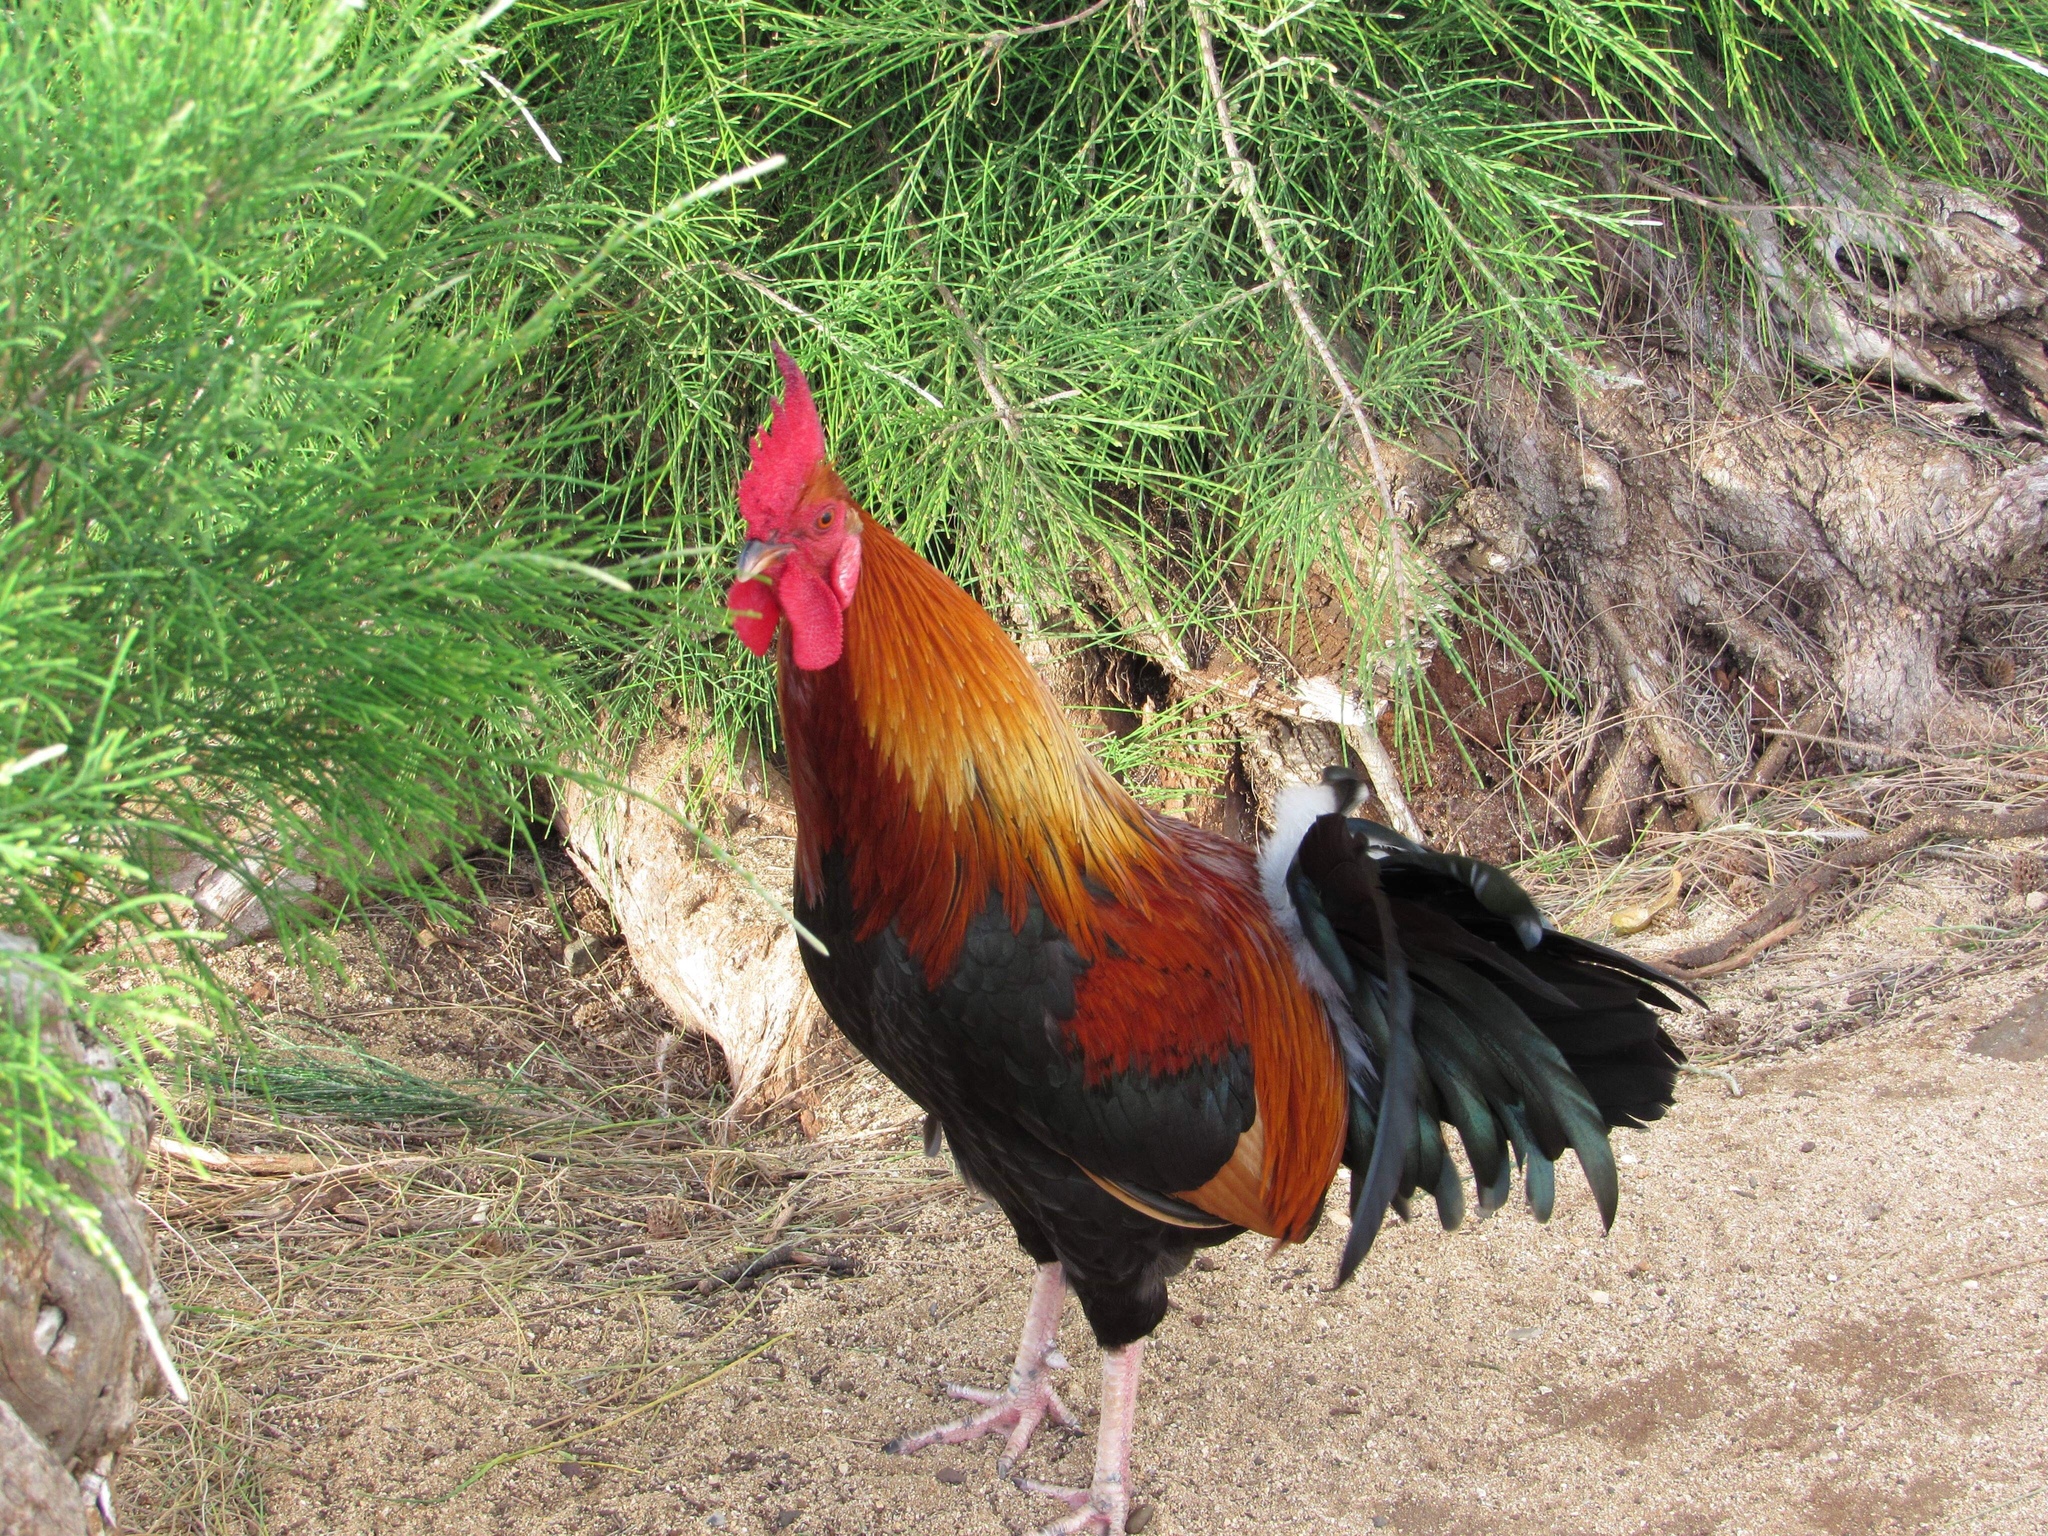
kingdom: Animalia
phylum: Chordata
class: Aves
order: Galliformes
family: Phasianidae
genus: Gallus
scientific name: Gallus gallus
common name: Red junglefowl
